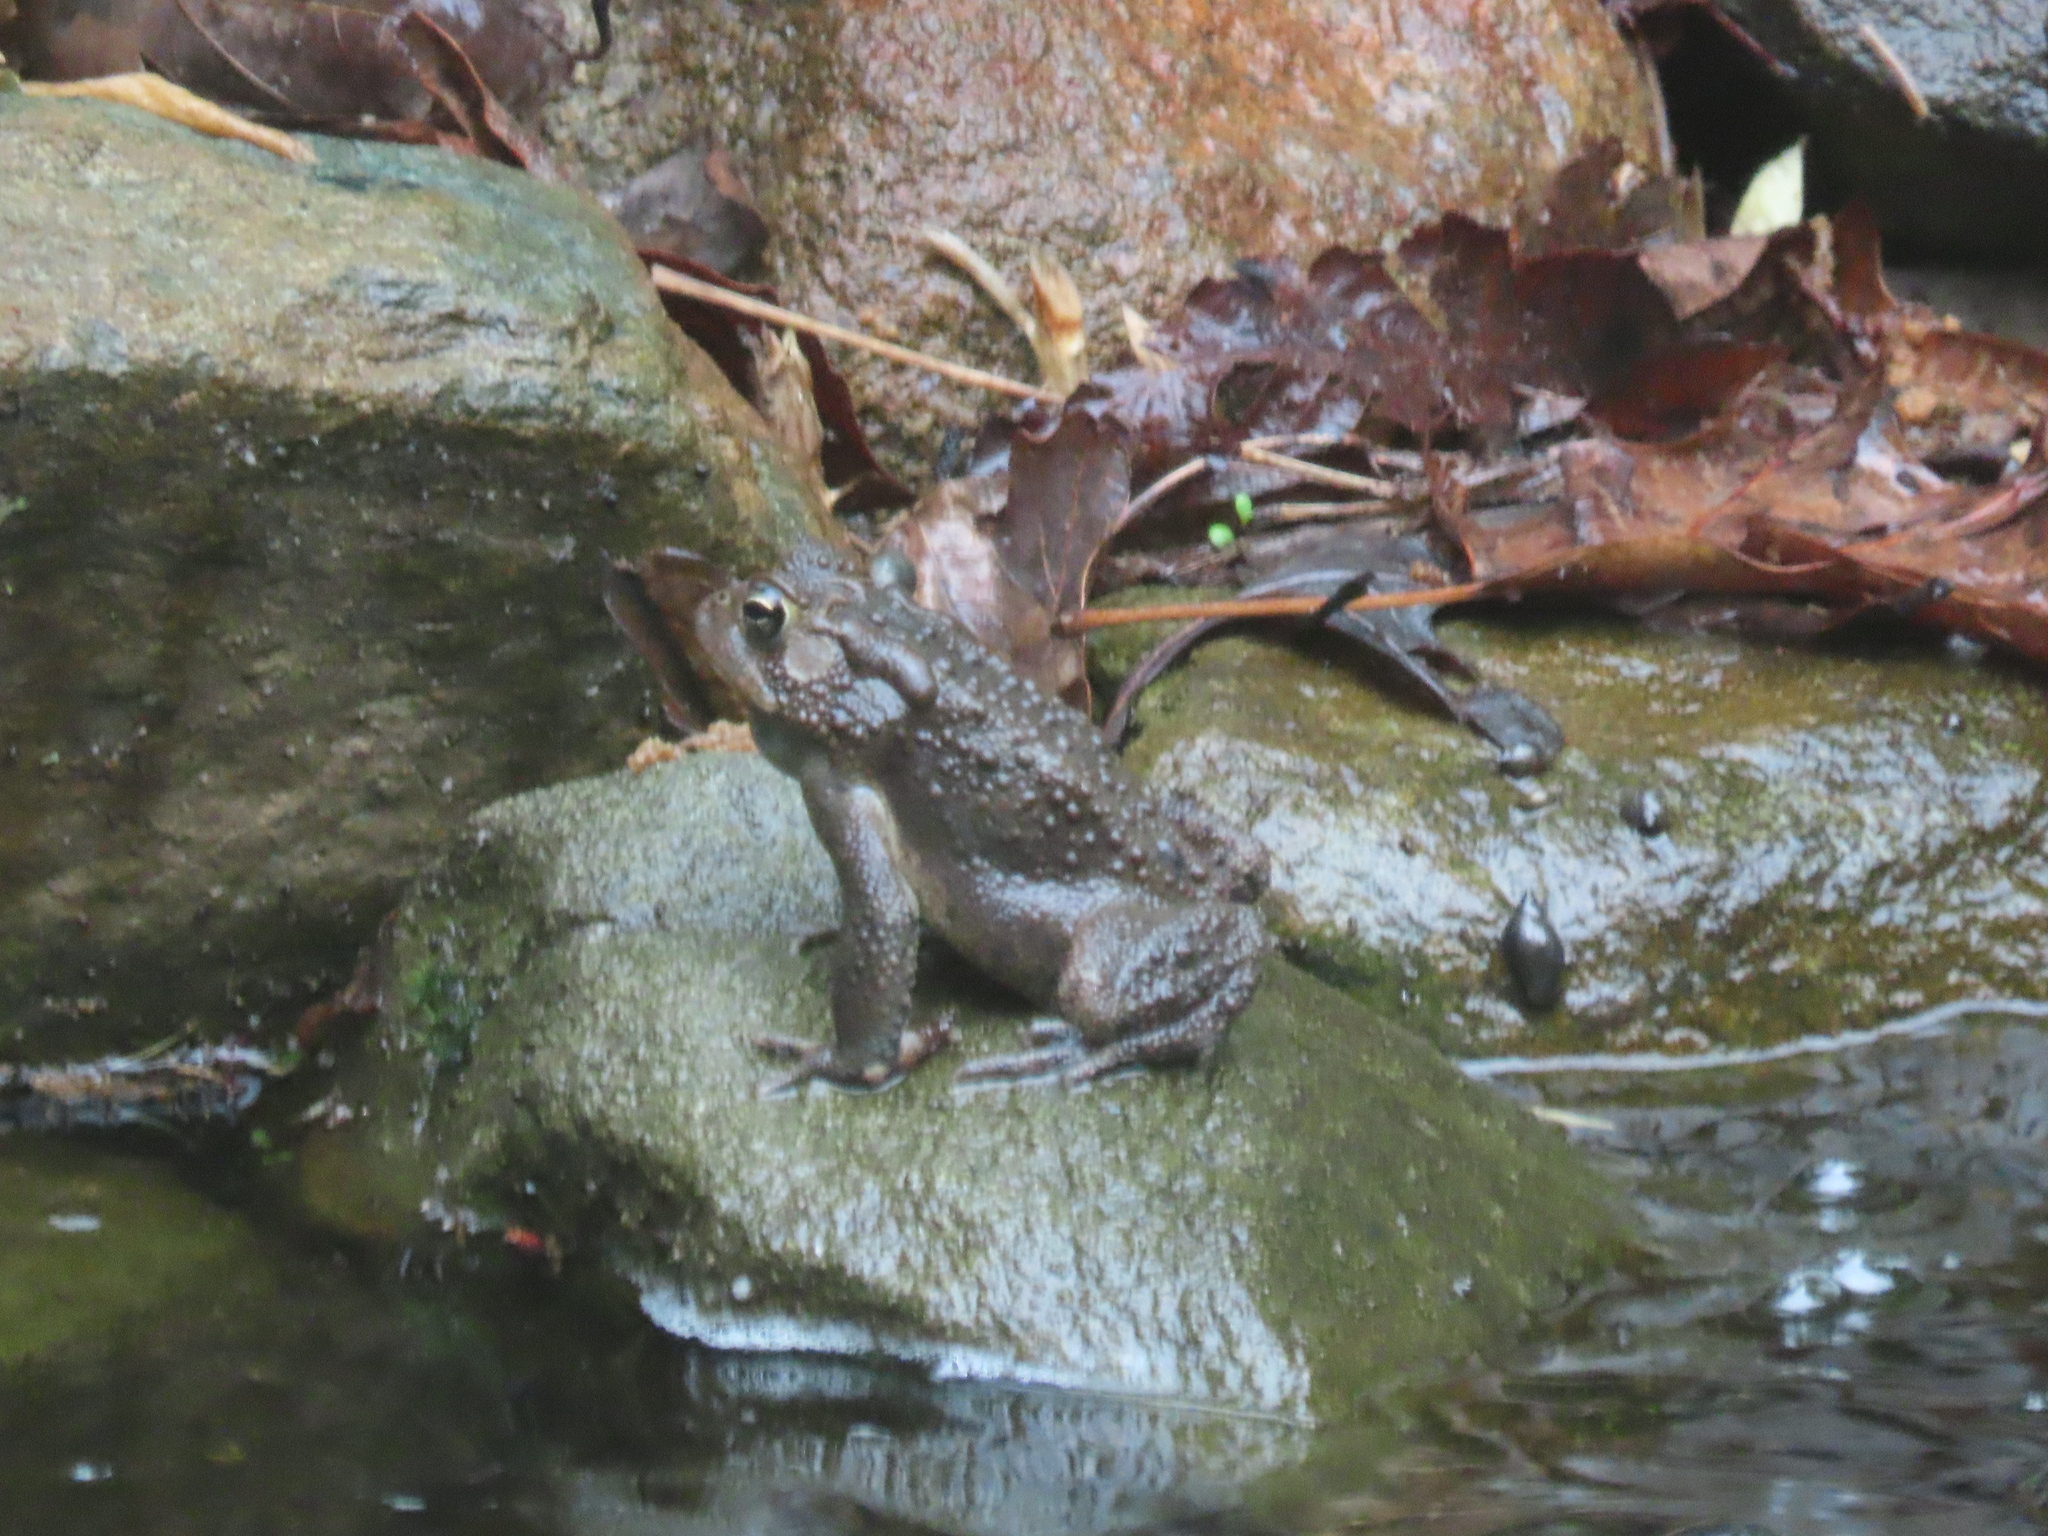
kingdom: Animalia
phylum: Chordata
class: Amphibia
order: Anura
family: Bufonidae
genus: Anaxyrus
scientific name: Anaxyrus americanus
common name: American toad
